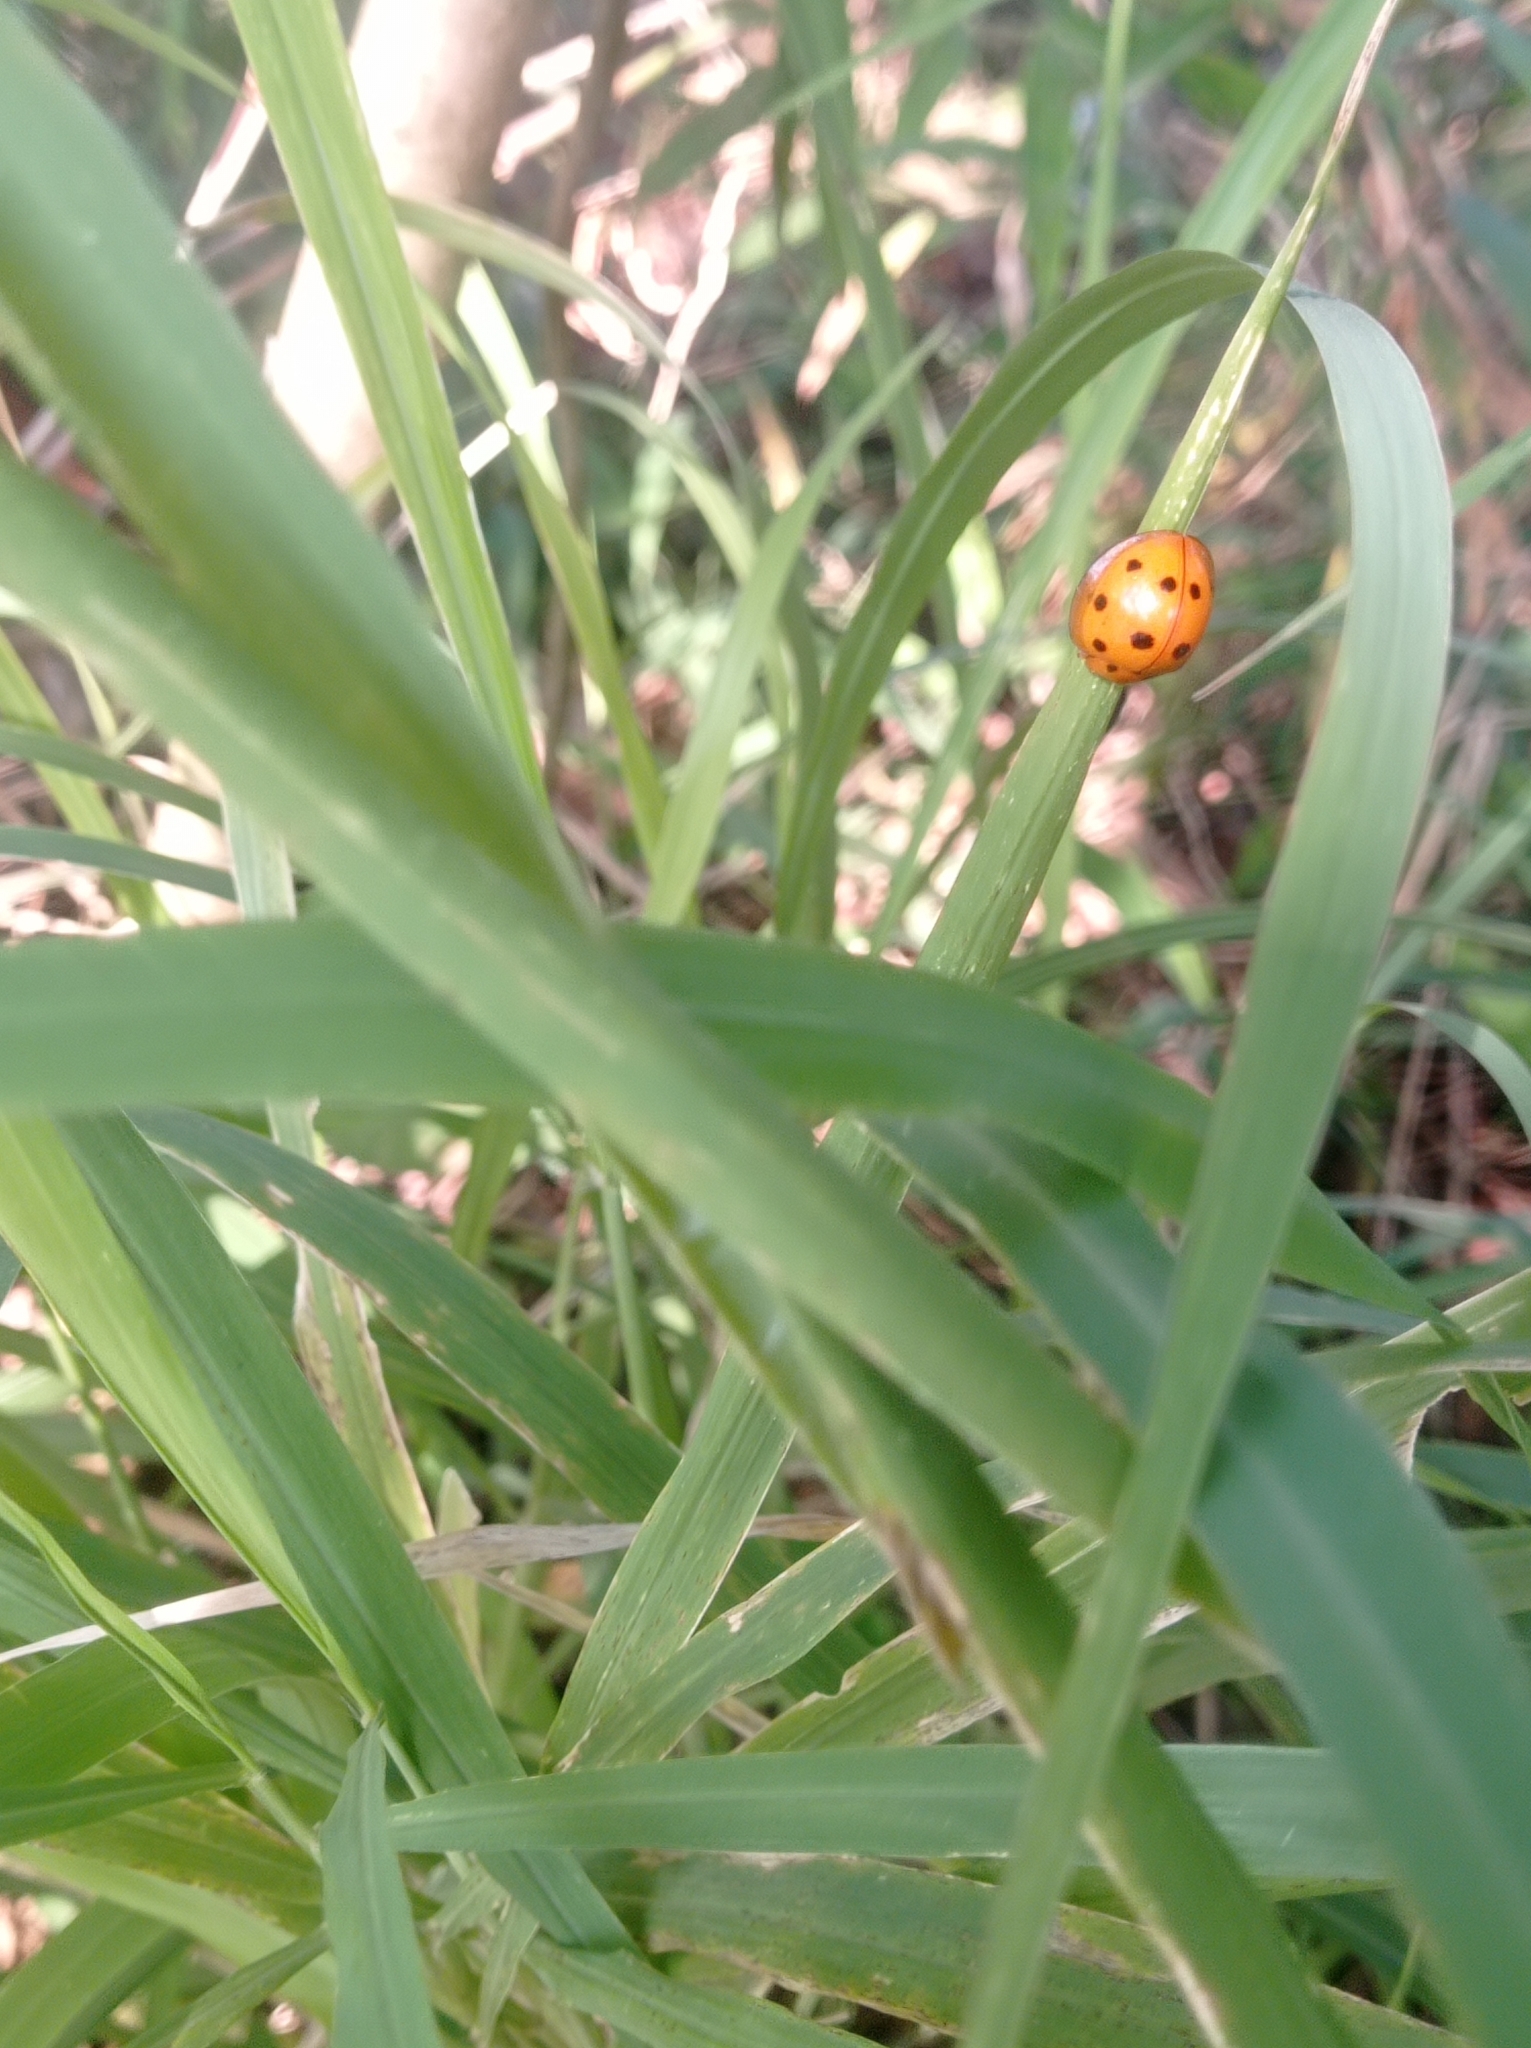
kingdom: Animalia
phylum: Arthropoda
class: Insecta
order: Coleoptera
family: Coccinellidae
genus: Megalocaria
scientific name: Megalocaria dilatata
